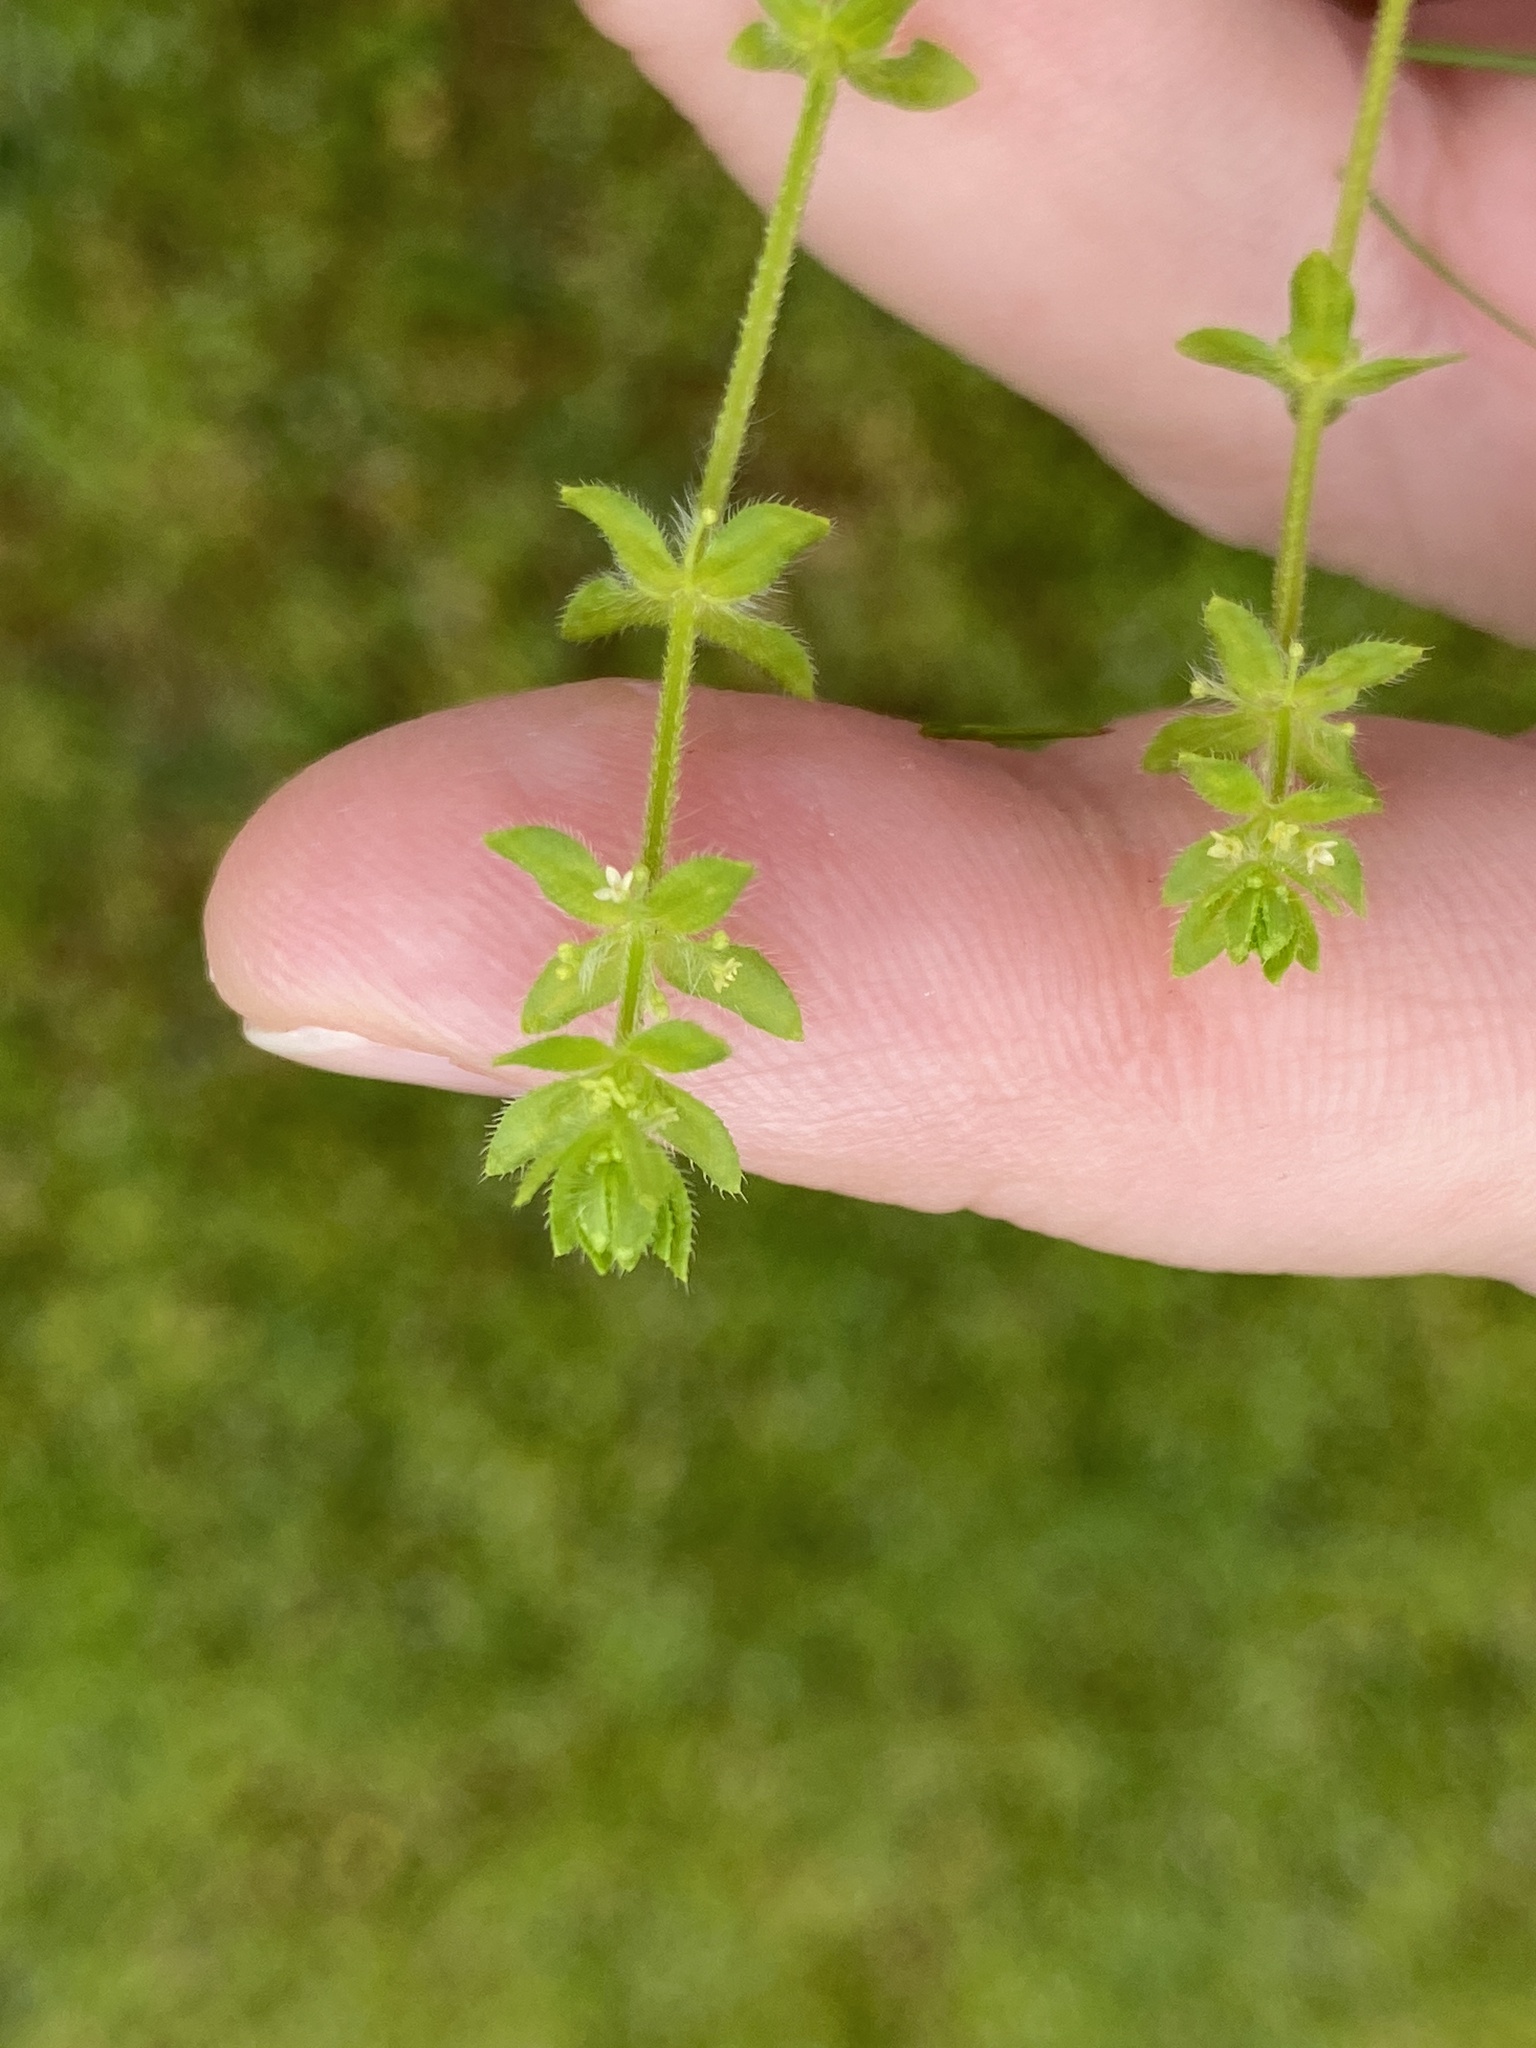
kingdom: Plantae
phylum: Tracheophyta
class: Magnoliopsida
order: Gentianales
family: Rubiaceae
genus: Cruciata
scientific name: Cruciata pedemontana
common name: Piedmont bedstraw
